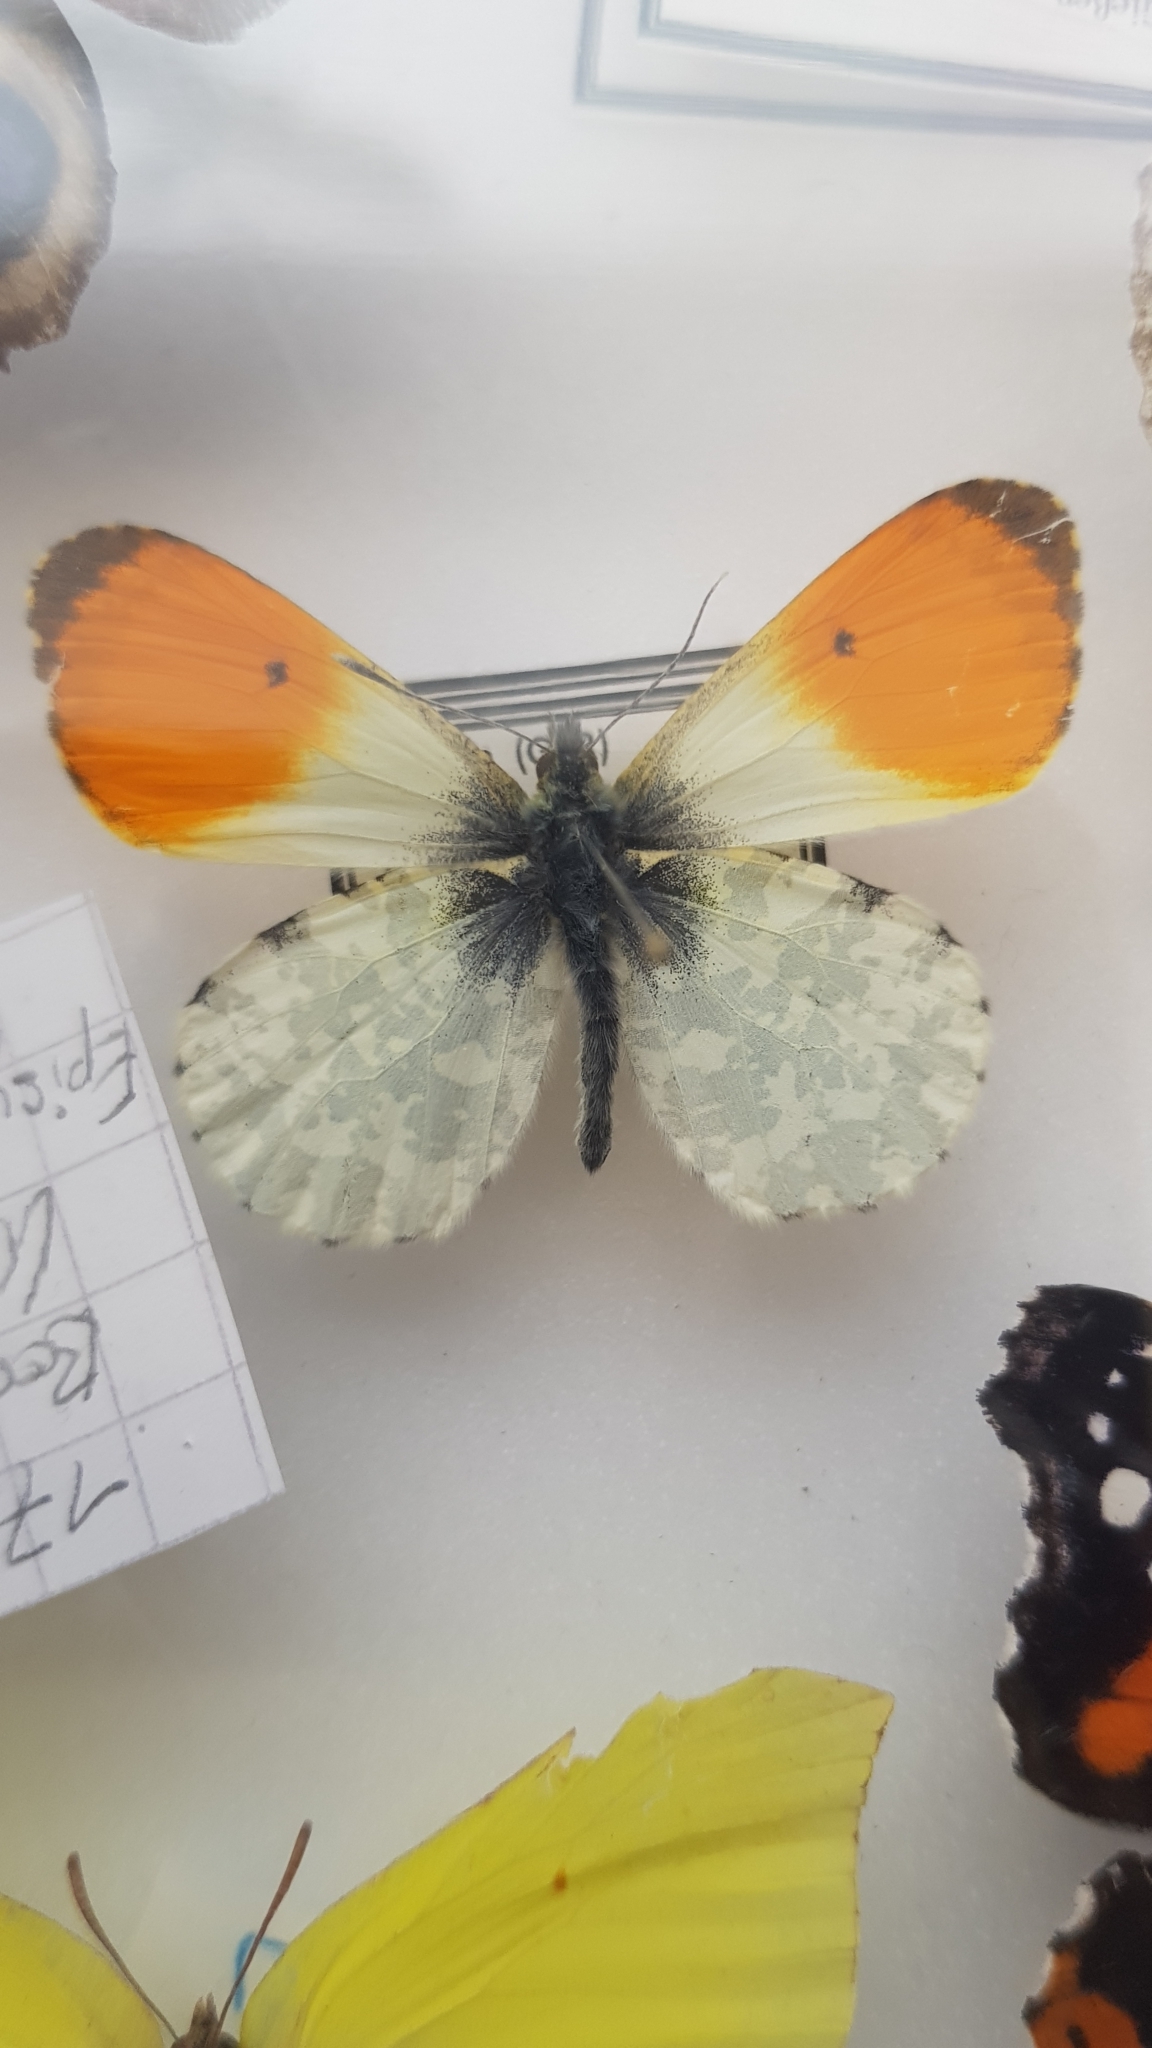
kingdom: Animalia
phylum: Arthropoda
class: Insecta
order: Lepidoptera
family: Pieridae
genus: Anthocharis
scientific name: Anthocharis cardamines
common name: Orange-tip
